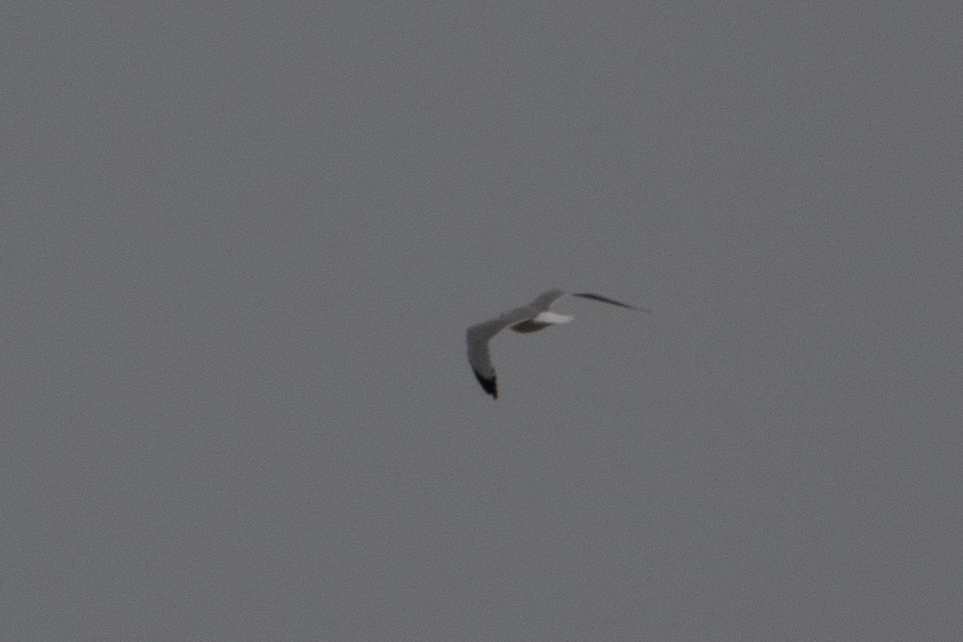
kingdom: Animalia
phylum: Chordata
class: Aves
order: Charadriiformes
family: Laridae
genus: Larus
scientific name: Larus
